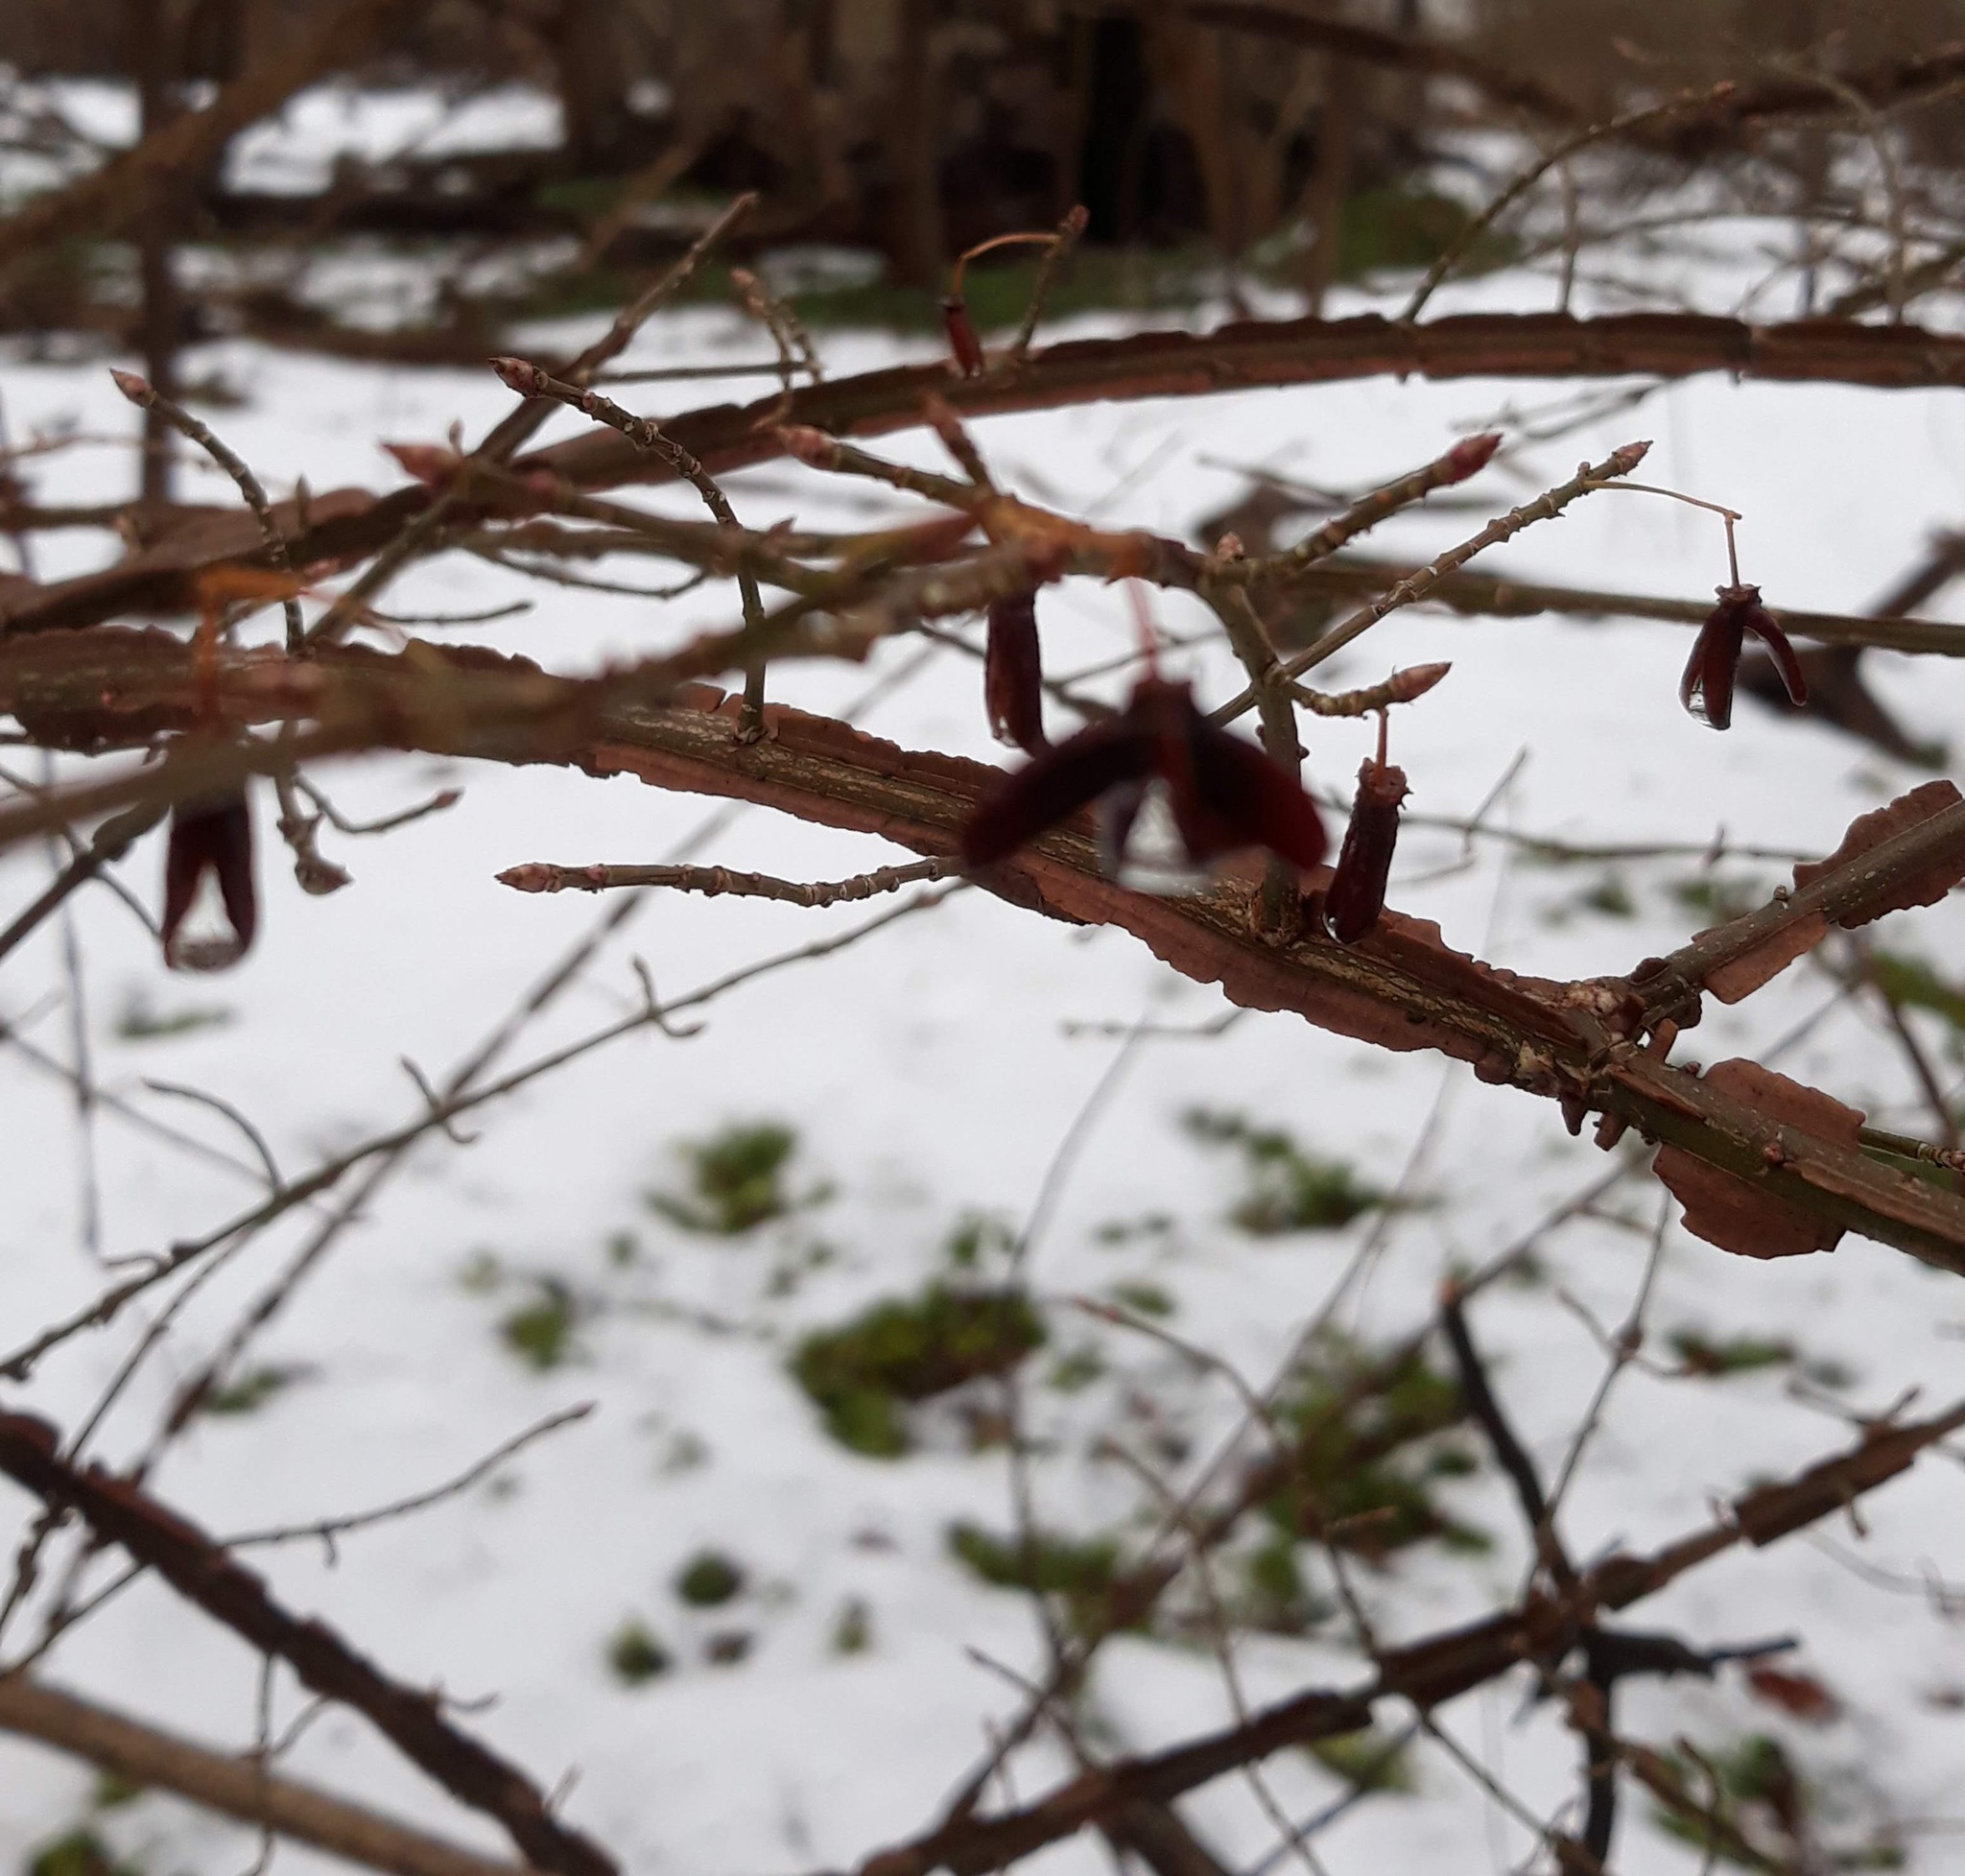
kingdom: Plantae
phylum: Tracheophyta
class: Magnoliopsida
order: Celastrales
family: Celastraceae
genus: Euonymus
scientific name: Euonymus alatus
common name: Winged euonymus
